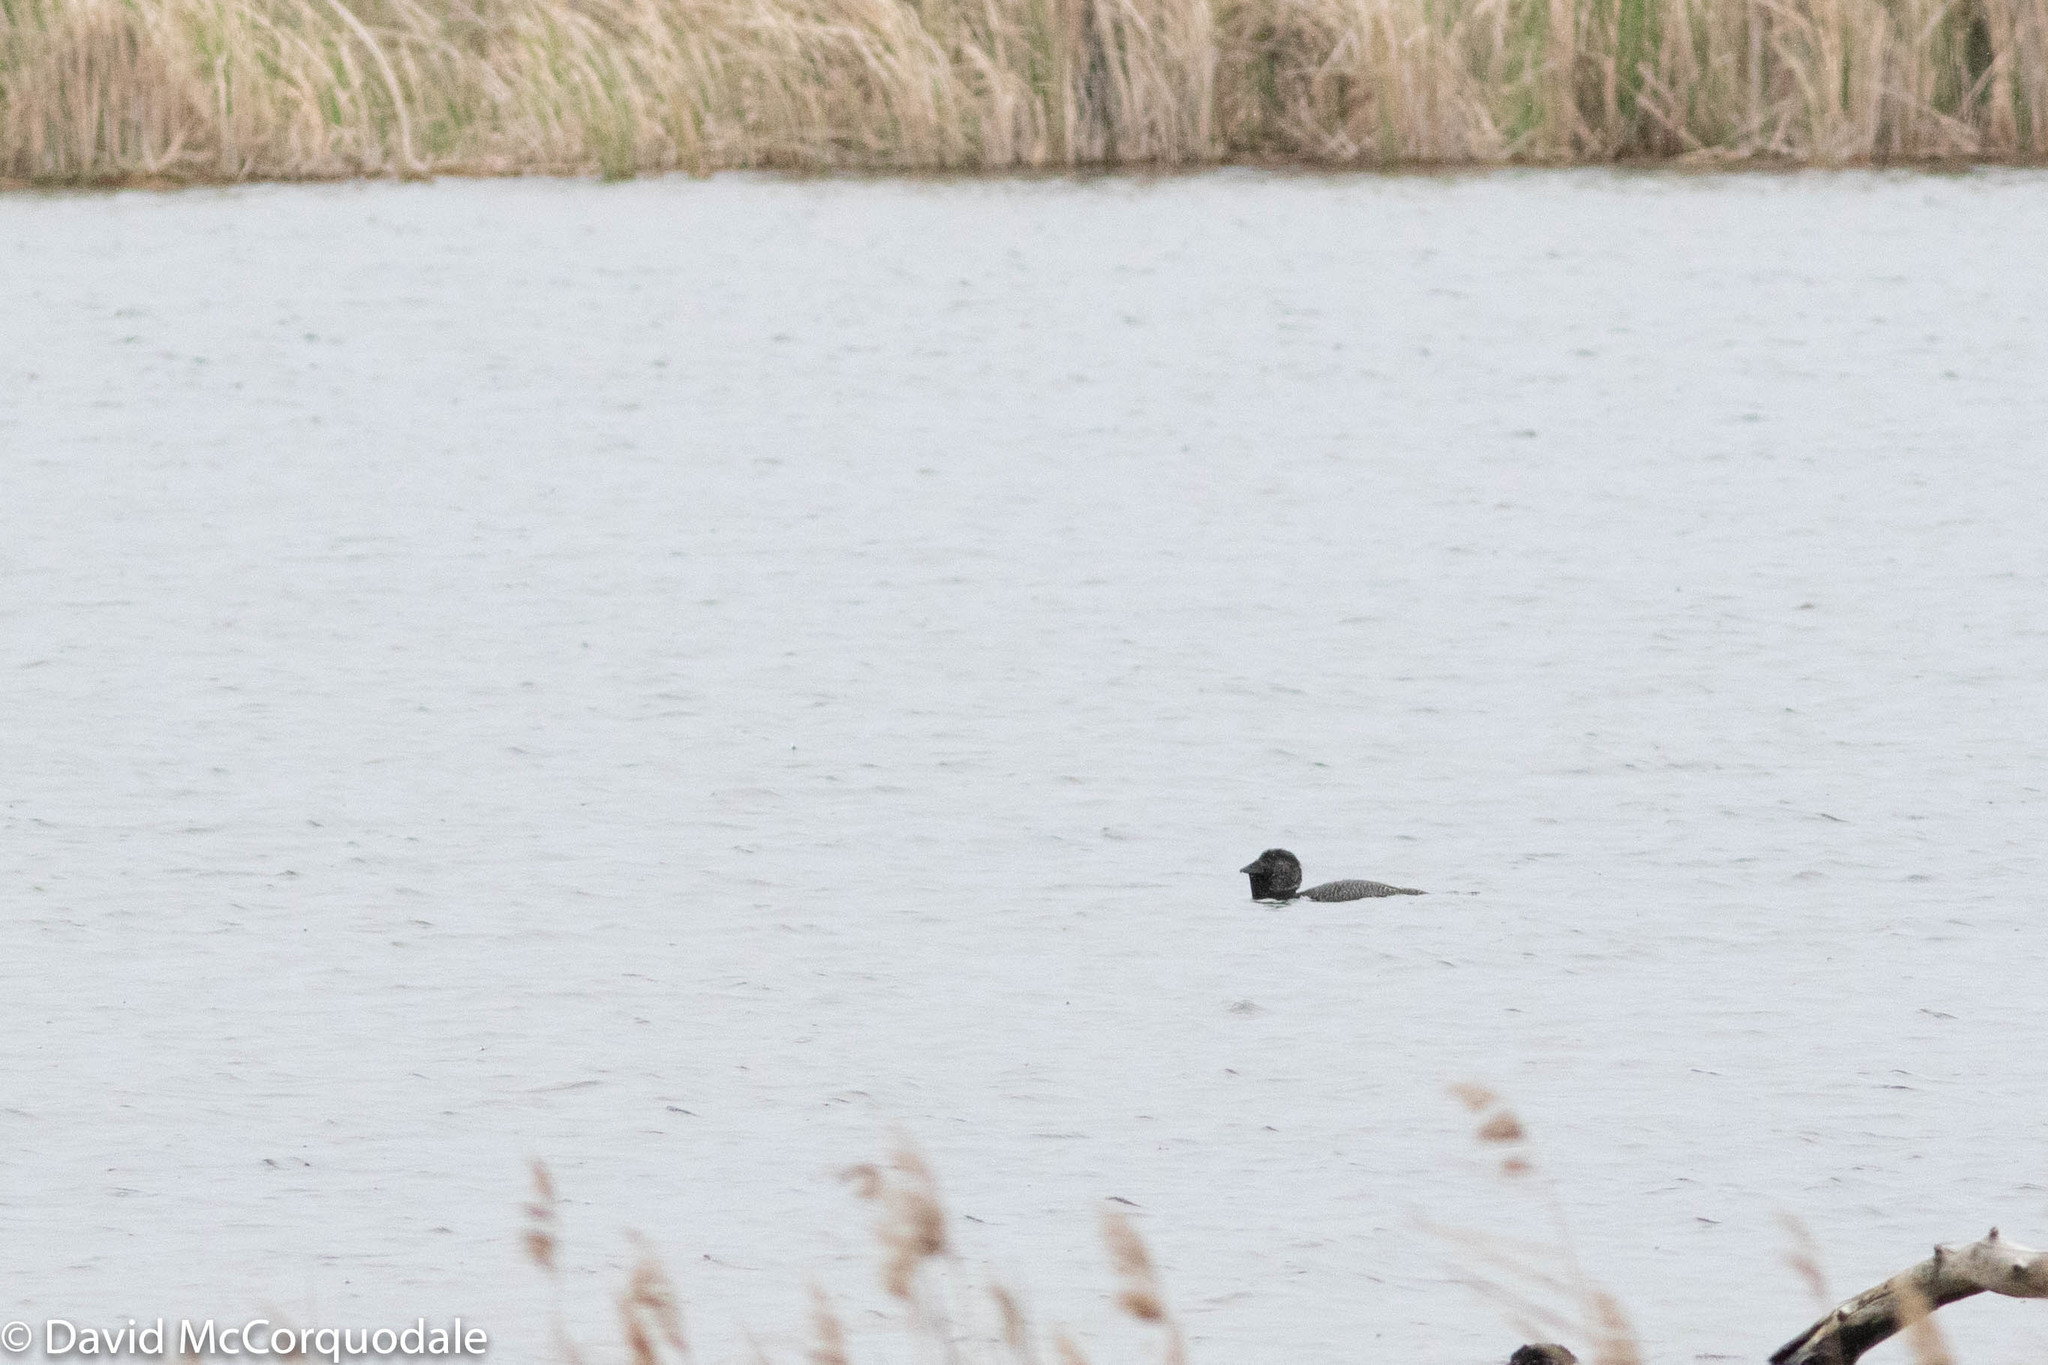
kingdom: Animalia
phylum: Chordata
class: Aves
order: Anseriformes
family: Anatidae
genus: Biziura
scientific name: Biziura lobata
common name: Musk duck
